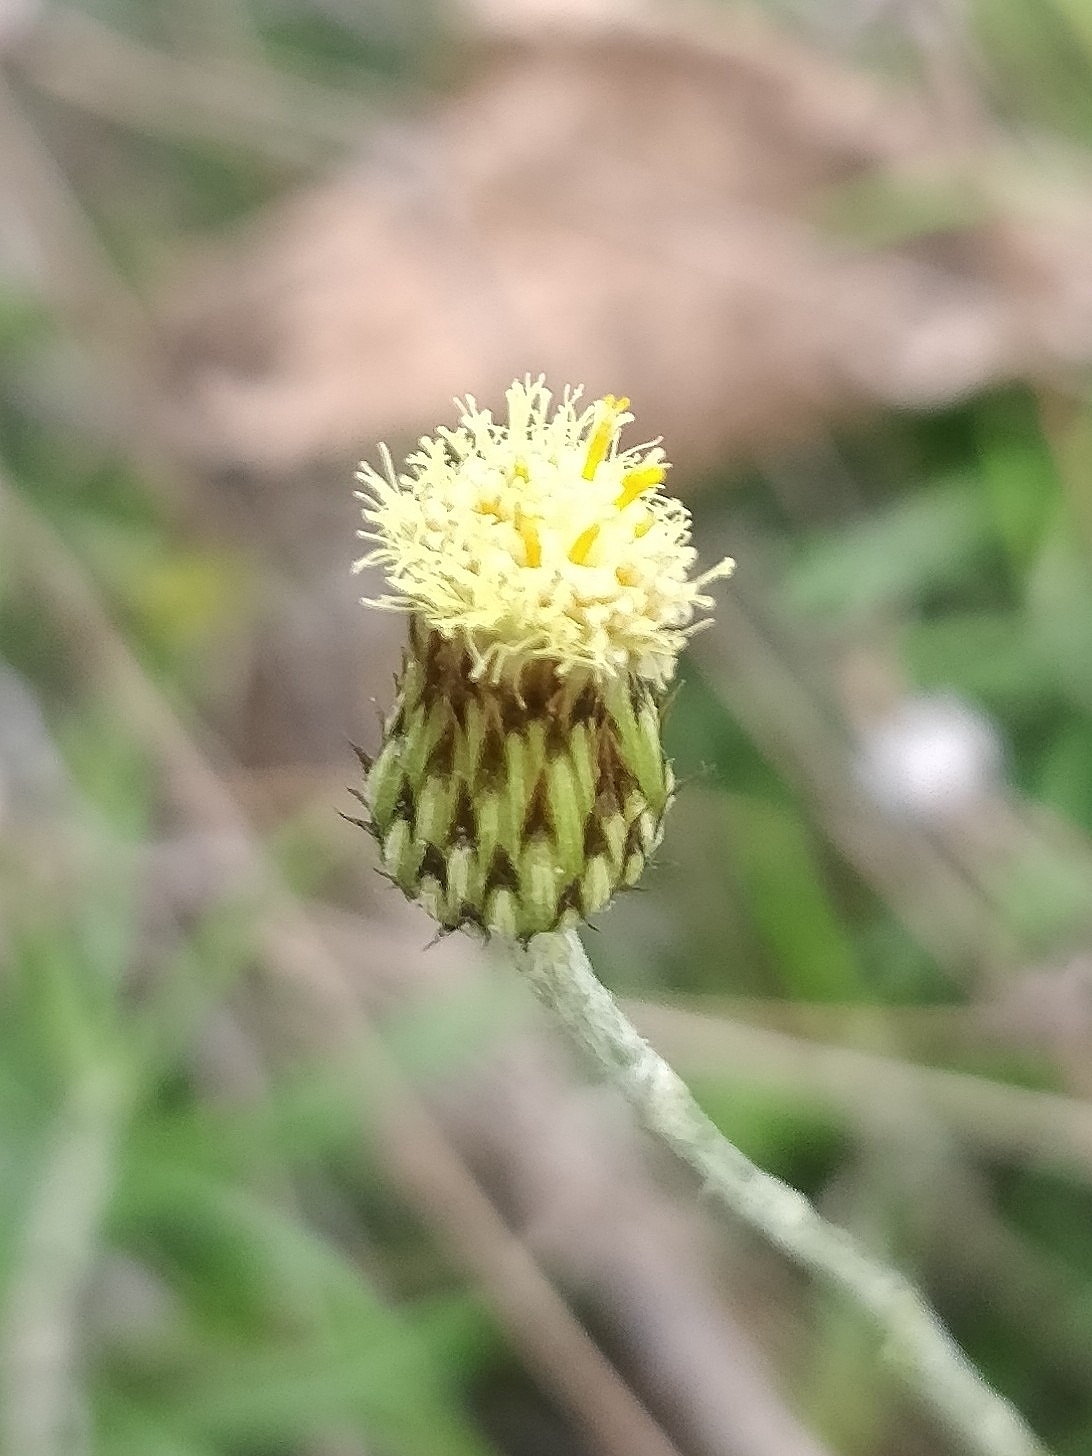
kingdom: Plantae
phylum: Tracheophyta
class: Magnoliopsida
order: Asterales
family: Asteraceae
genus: Phagnalon
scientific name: Phagnalon saxatile
